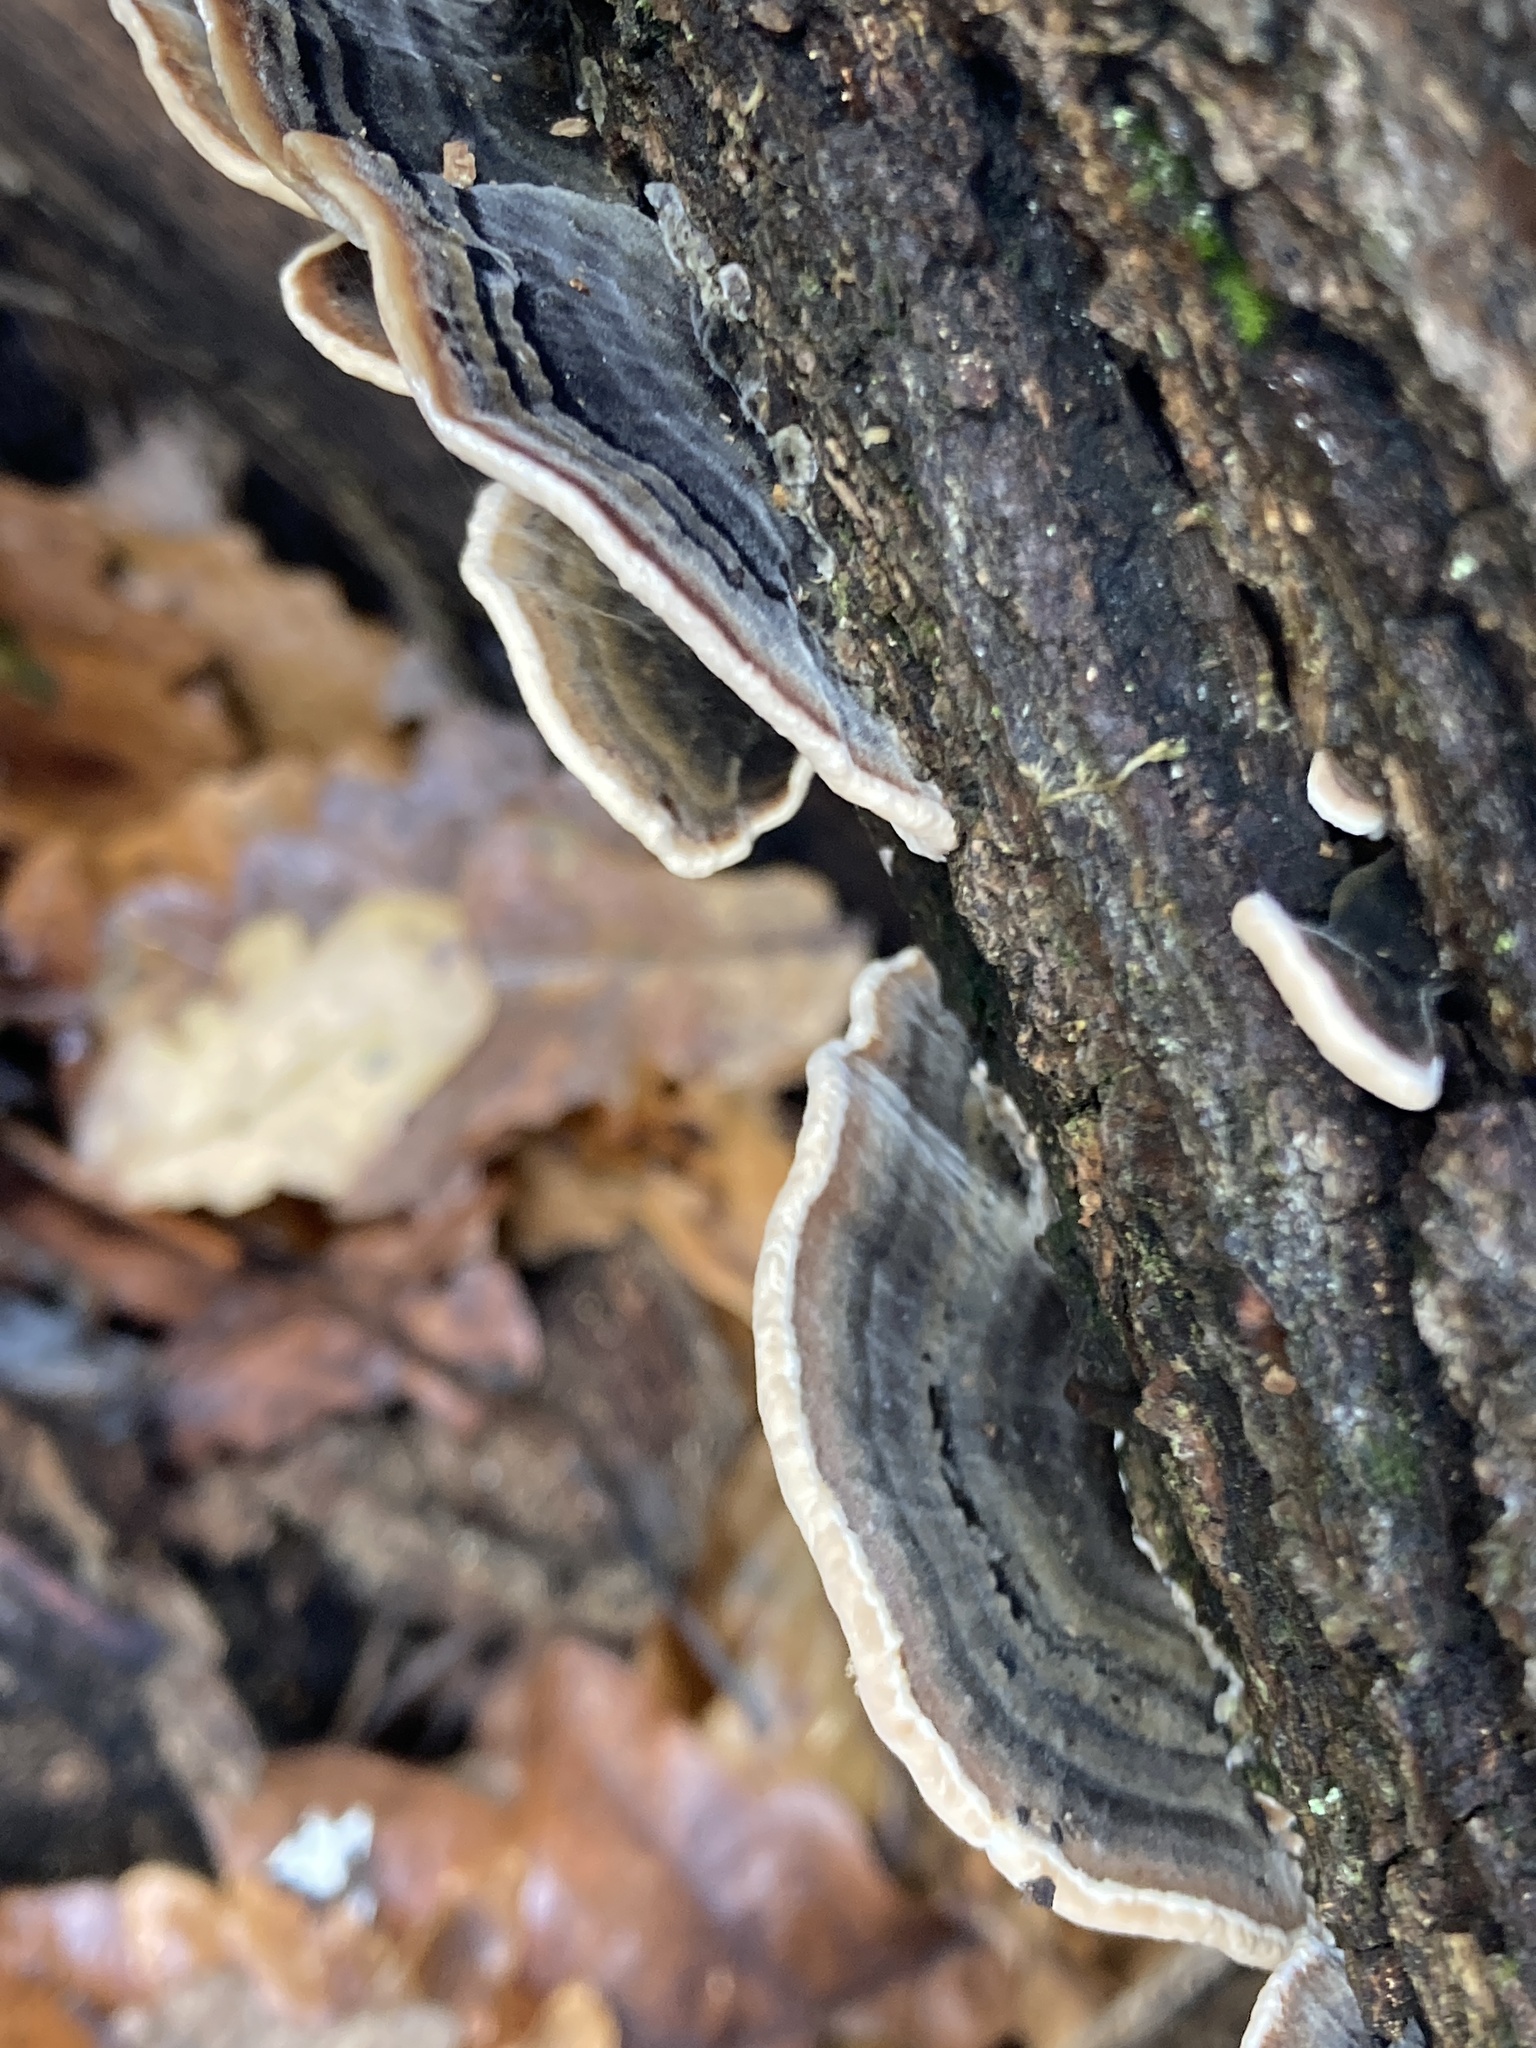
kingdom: Fungi
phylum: Basidiomycota
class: Agaricomycetes
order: Polyporales
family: Polyporaceae
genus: Trametes
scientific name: Trametes versicolor
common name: Turkeytail
